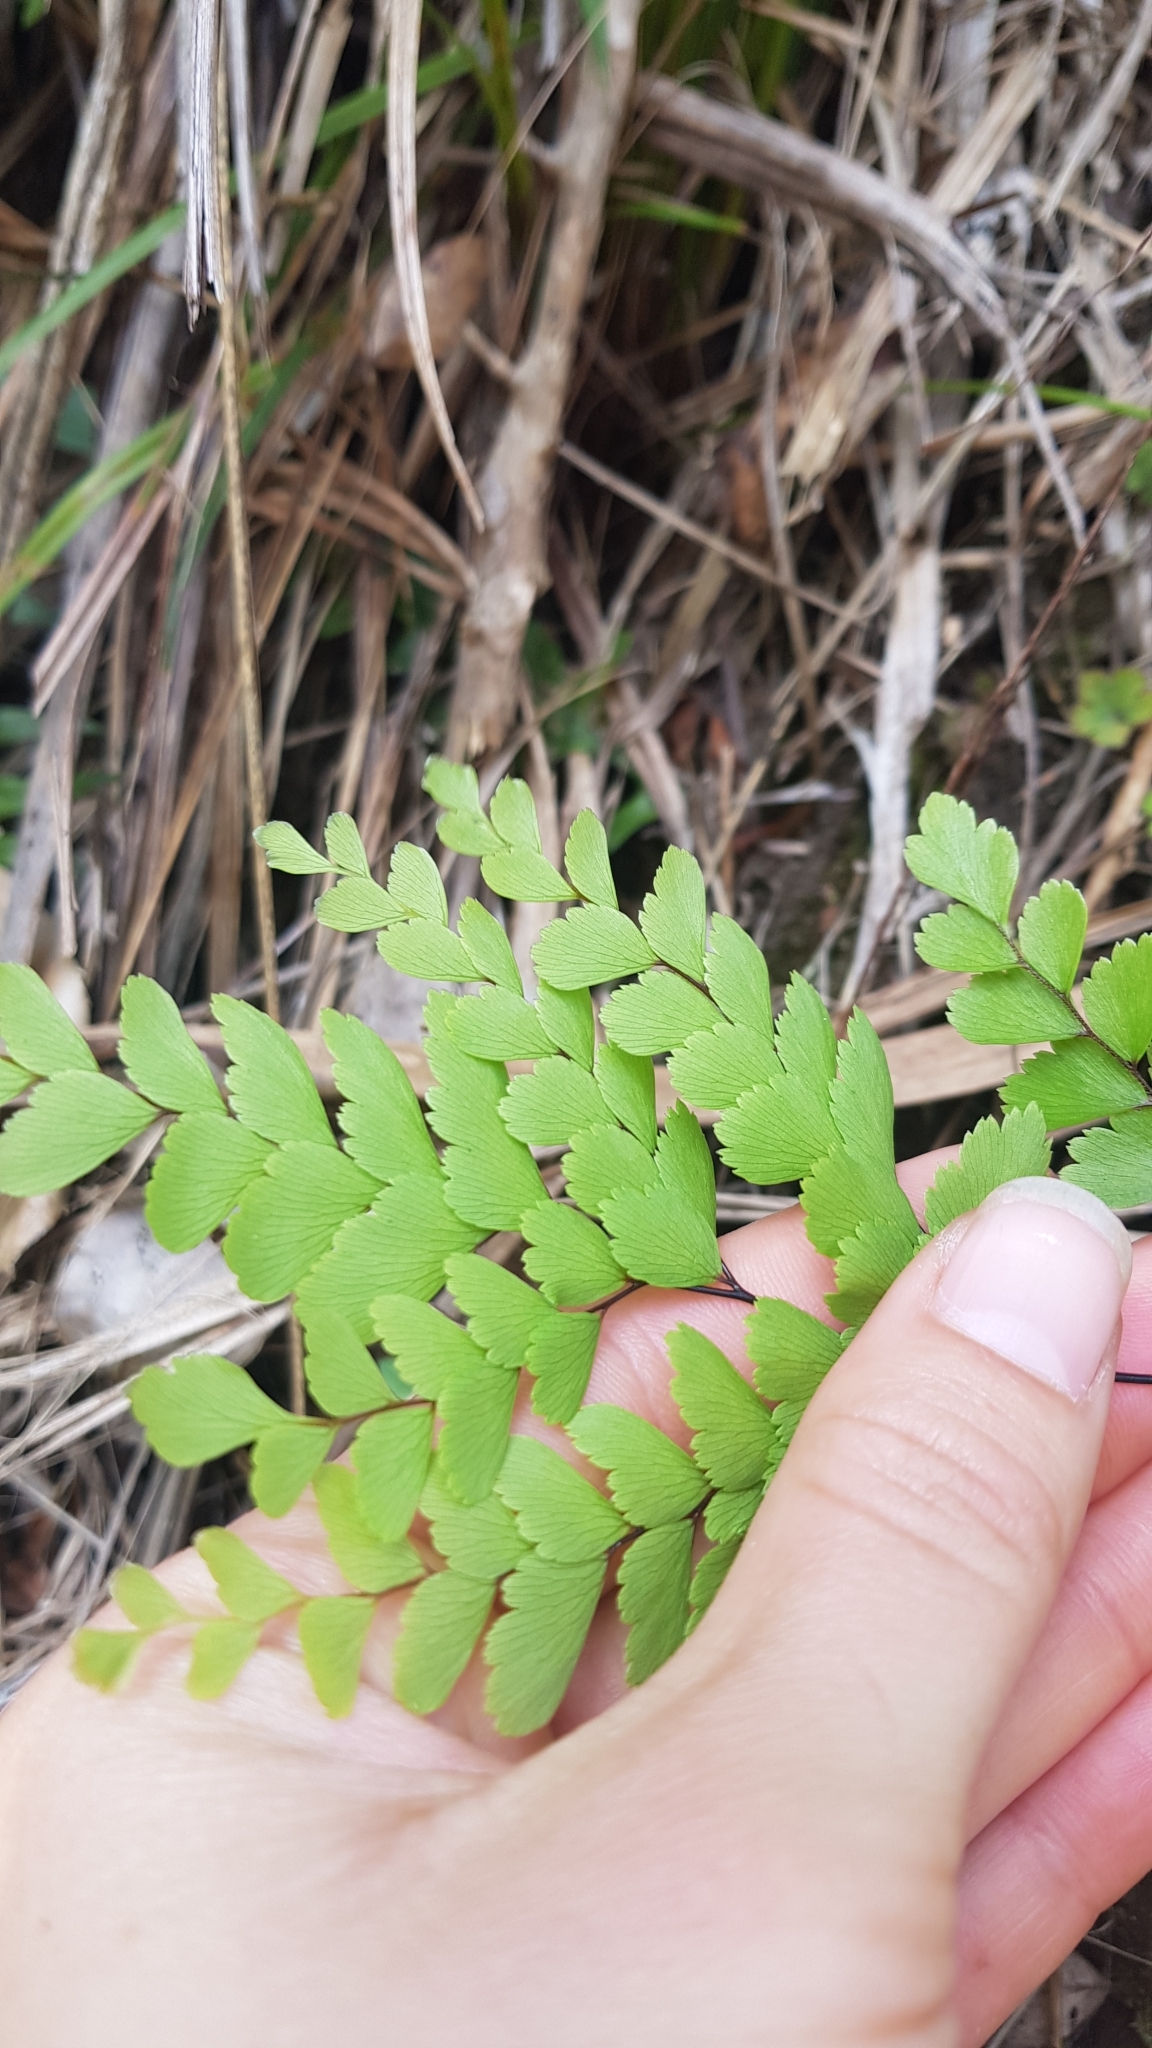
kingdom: Plantae
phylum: Tracheophyta
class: Polypodiopsida
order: Polypodiales
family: Pteridaceae
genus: Adiantum
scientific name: Adiantum fulvum
